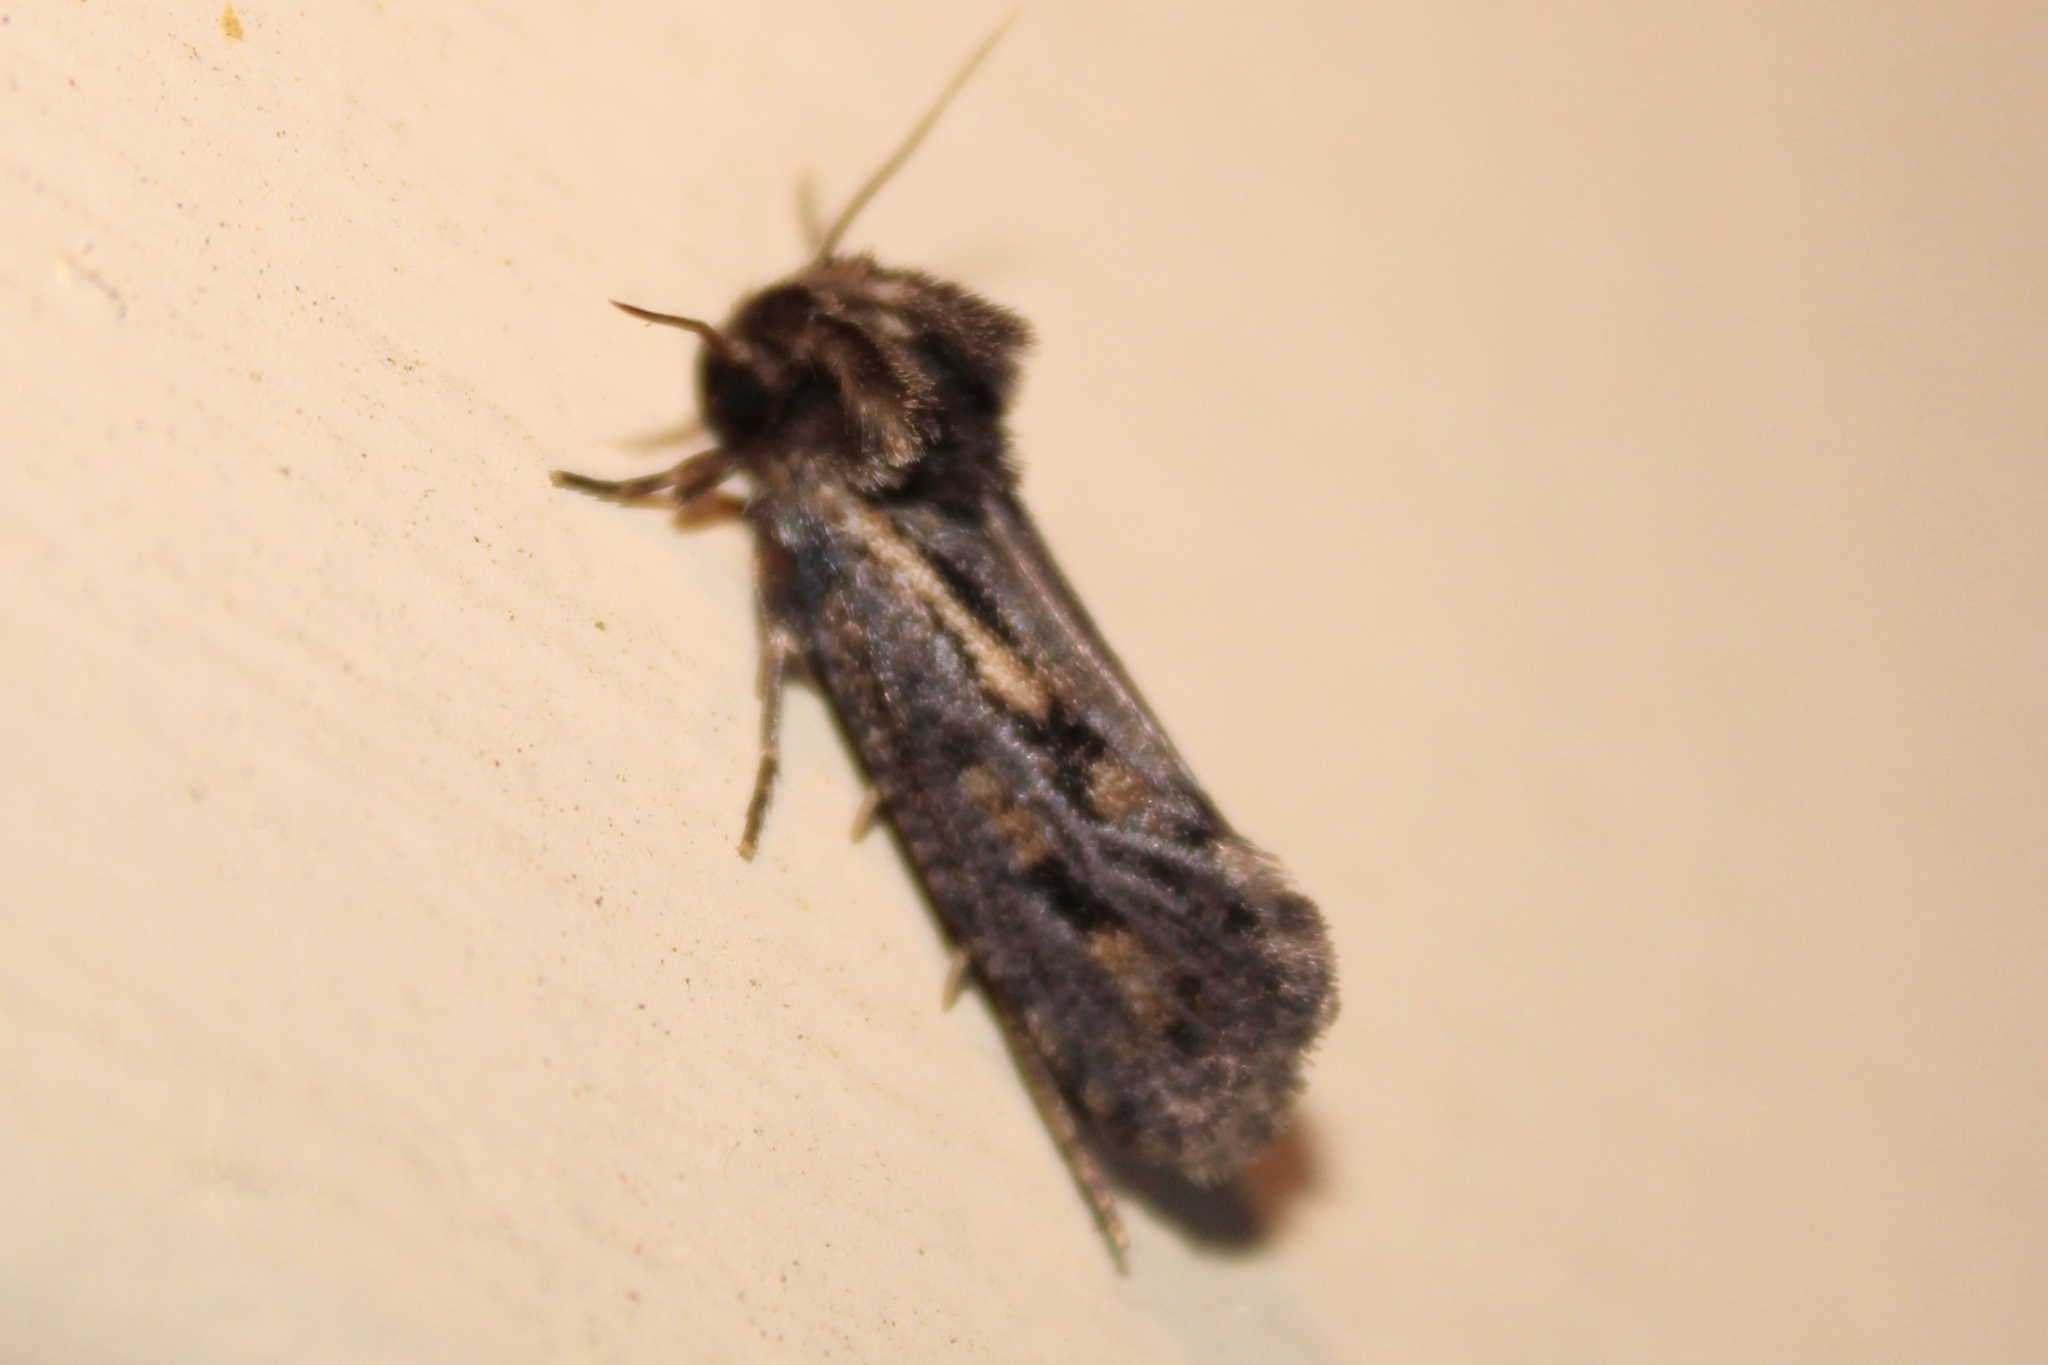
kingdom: Animalia
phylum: Arthropoda
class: Insecta
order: Lepidoptera
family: Tineidae
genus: Acrolophus
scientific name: Acrolophus popeanella
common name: Clemens' grass tubeworm moth
